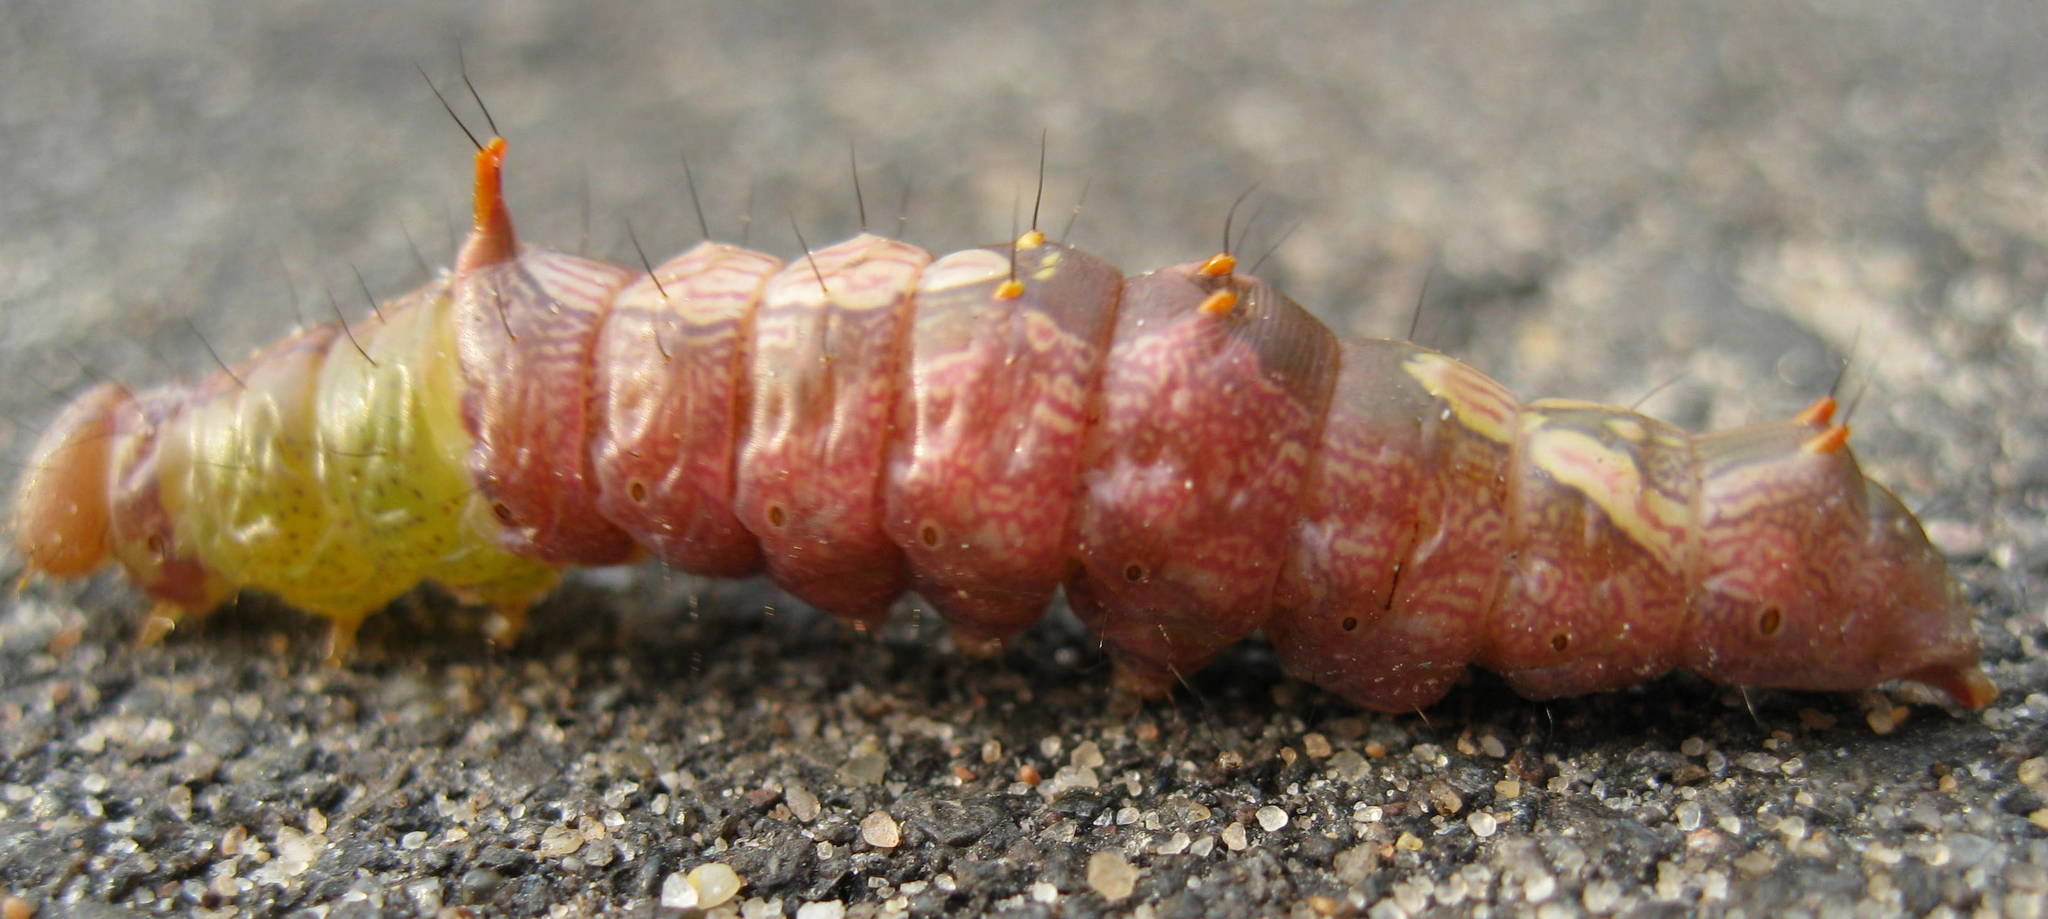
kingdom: Animalia
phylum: Arthropoda
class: Insecta
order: Lepidoptera
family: Notodontidae
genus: Schizura
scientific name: Schizura ipomaeae
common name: Morning-glory prominent
